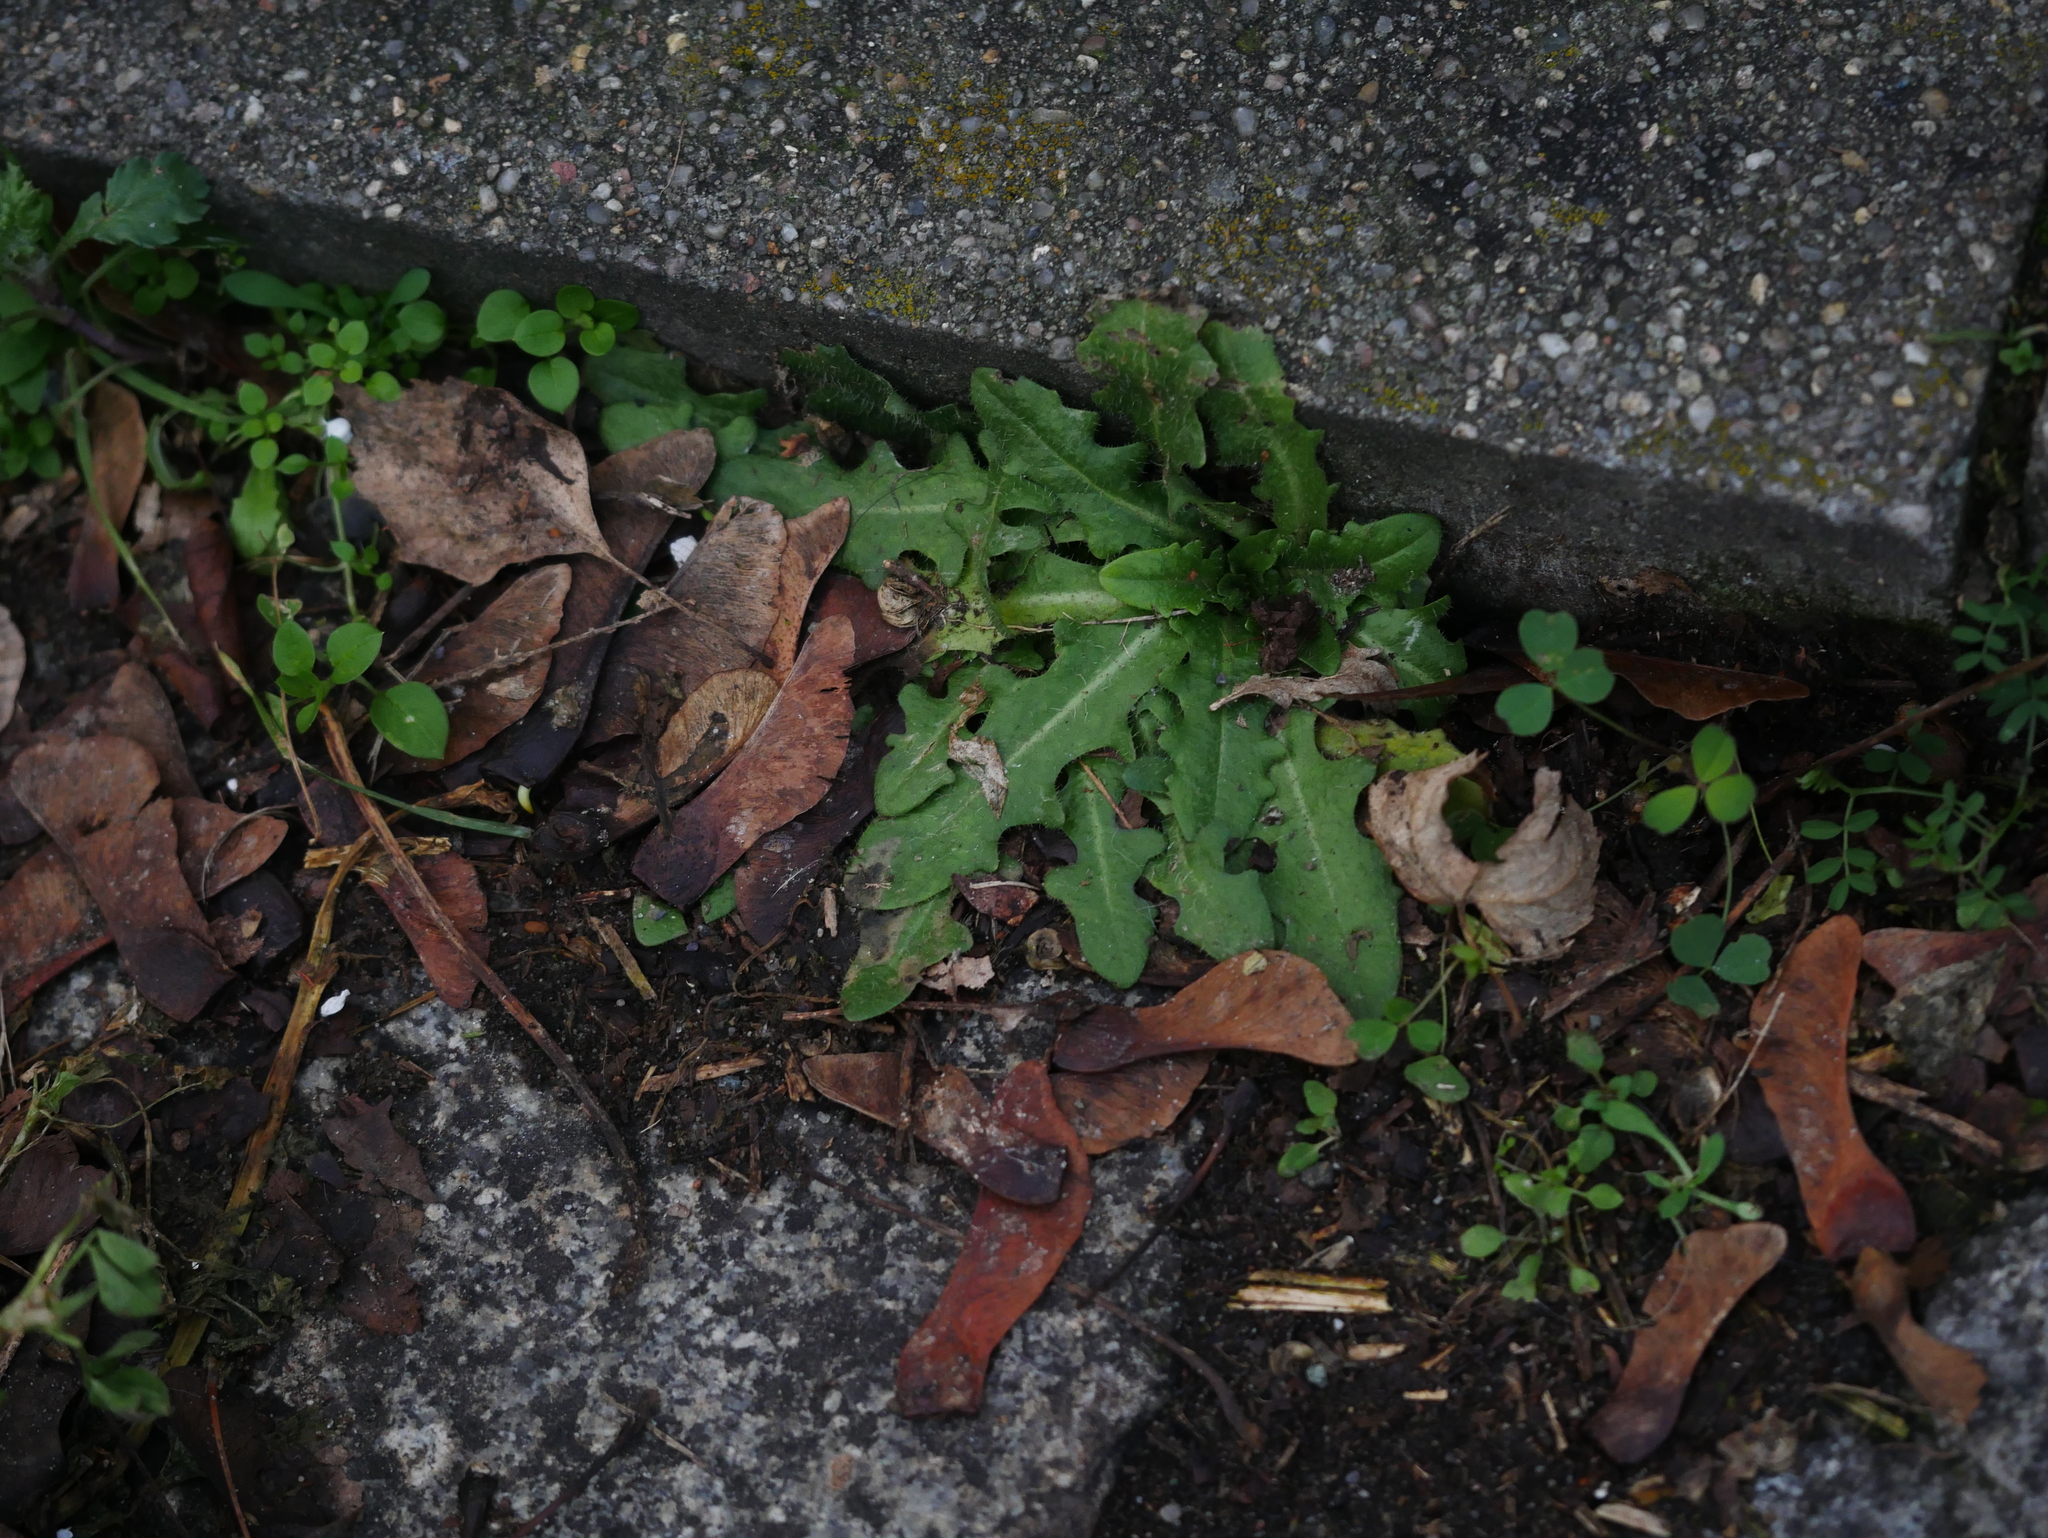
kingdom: Plantae
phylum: Tracheophyta
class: Magnoliopsida
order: Asterales
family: Asteraceae
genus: Hypochaeris
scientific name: Hypochaeris radicata
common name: Flatweed
